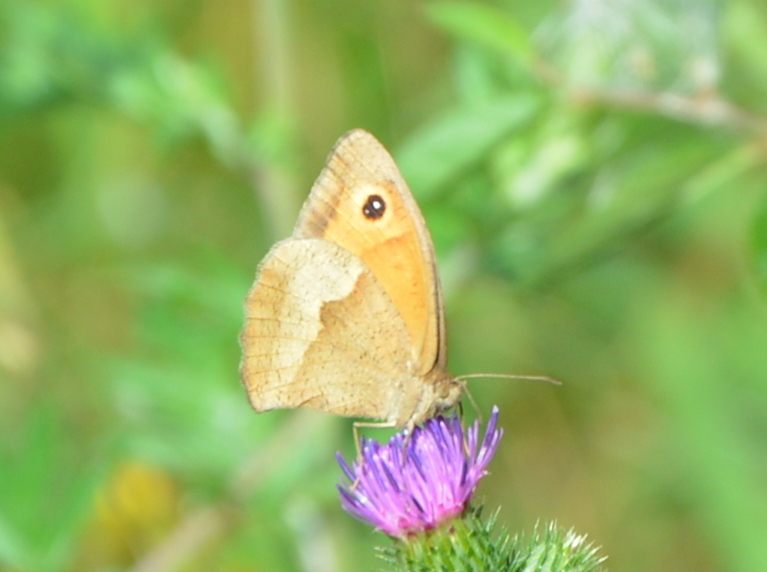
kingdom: Animalia
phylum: Arthropoda
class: Insecta
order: Lepidoptera
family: Nymphalidae
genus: Maniola
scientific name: Maniola jurtina
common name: Meadow brown
